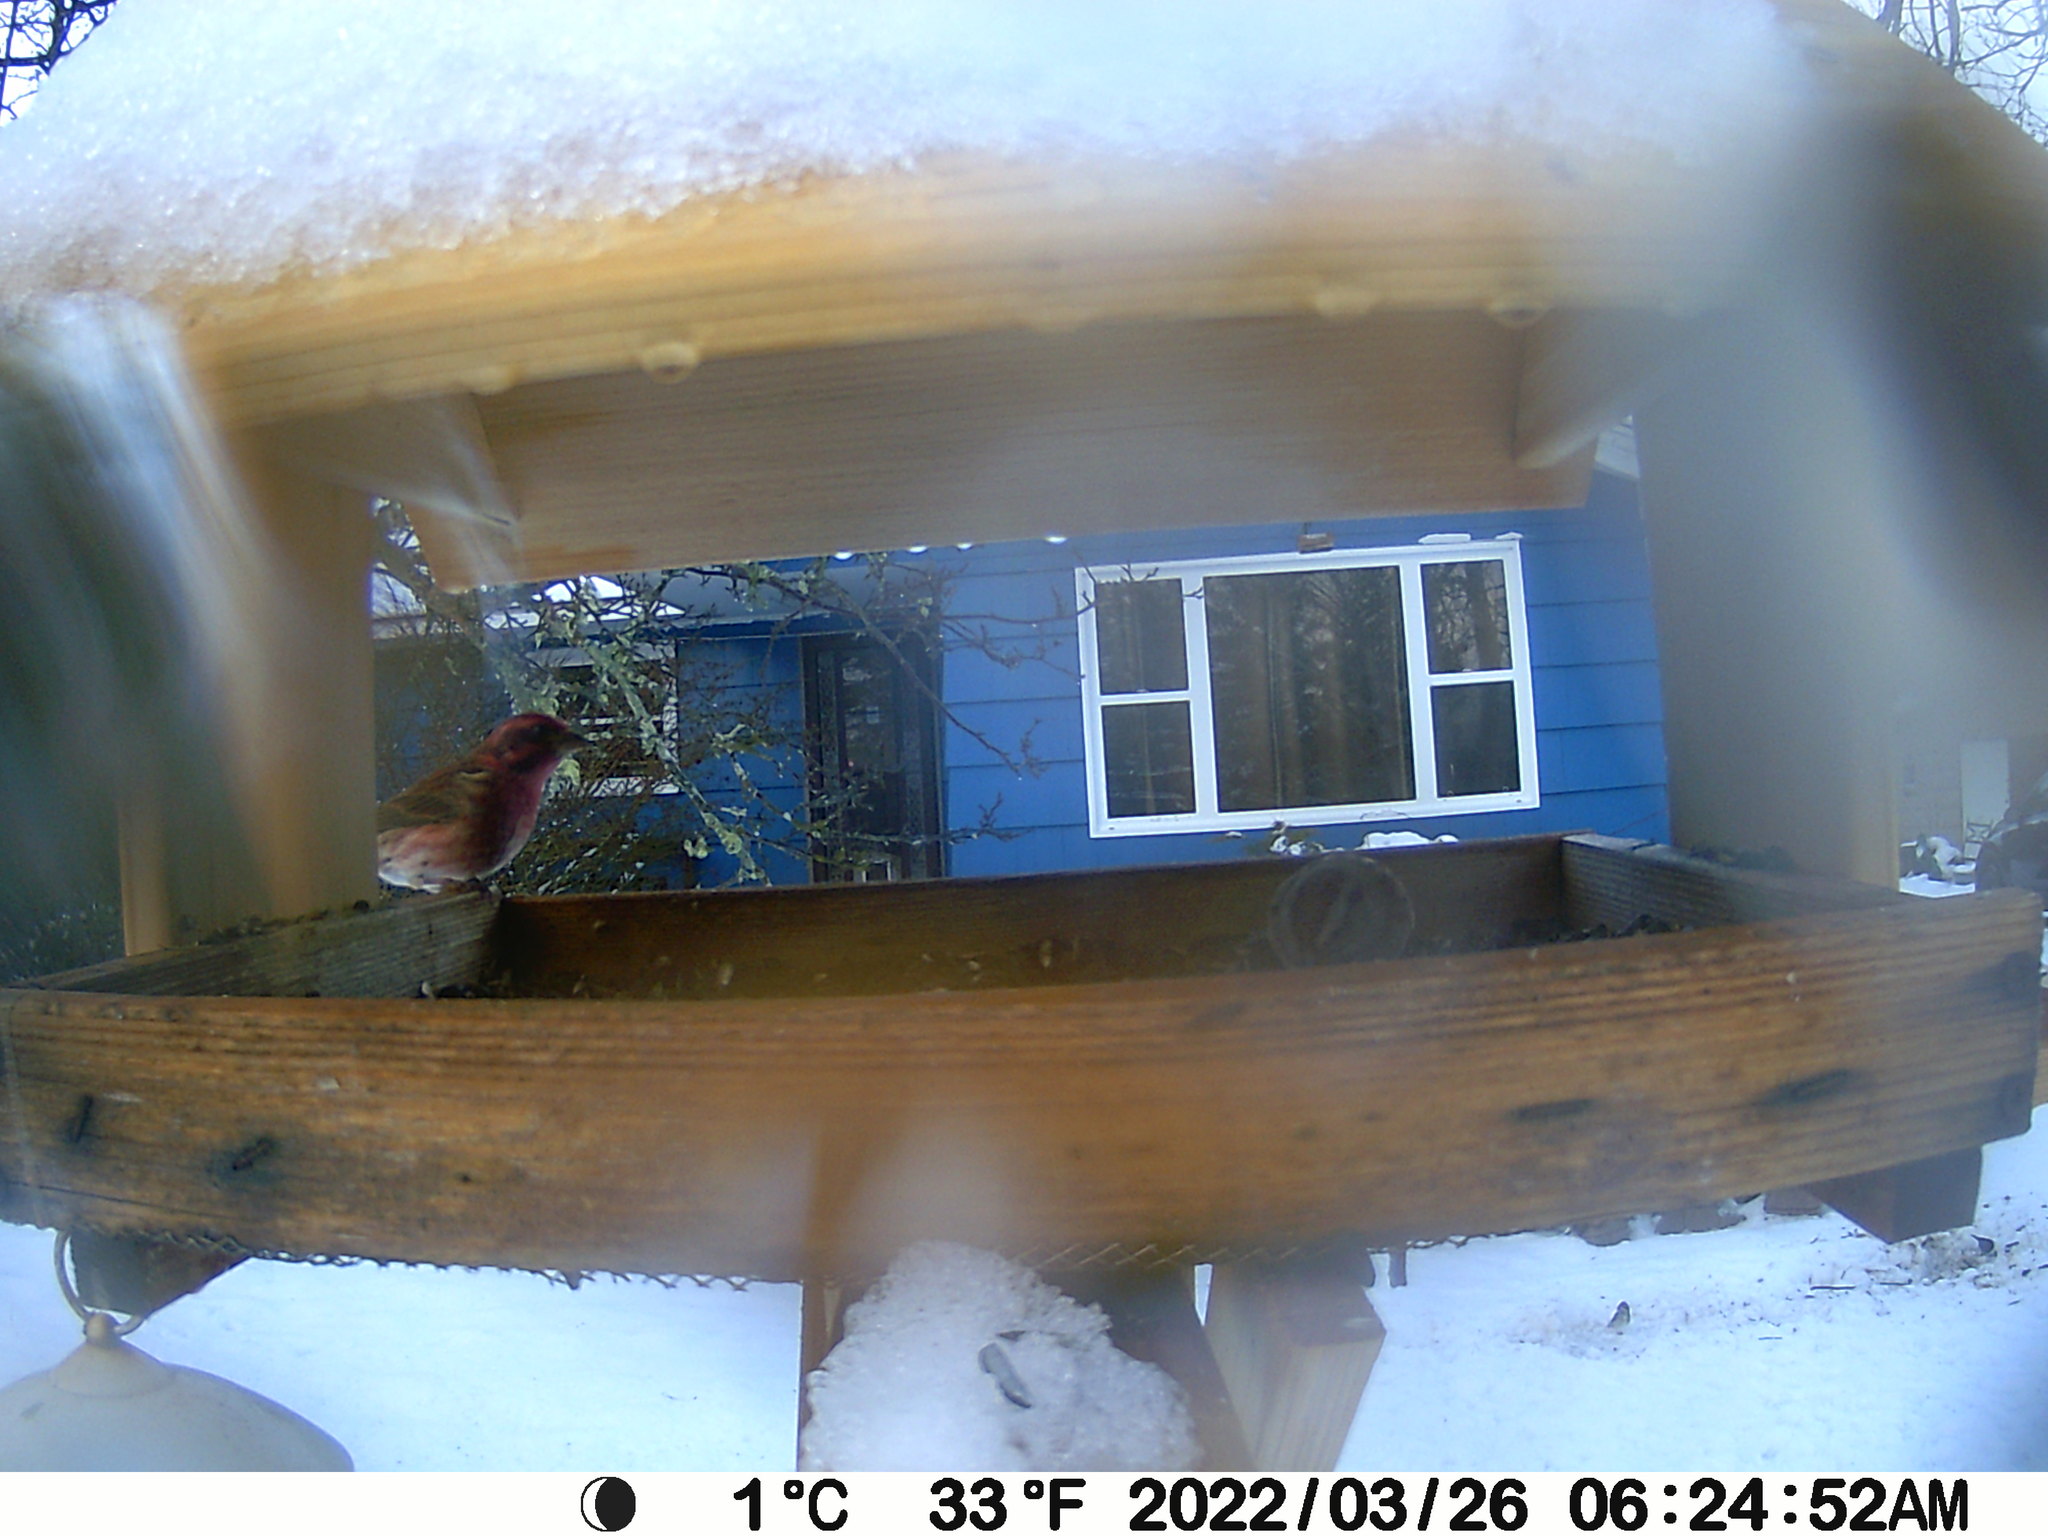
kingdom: Animalia
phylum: Chordata
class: Aves
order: Passeriformes
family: Fringillidae
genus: Haemorhous
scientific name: Haemorhous purpureus
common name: Purple finch
